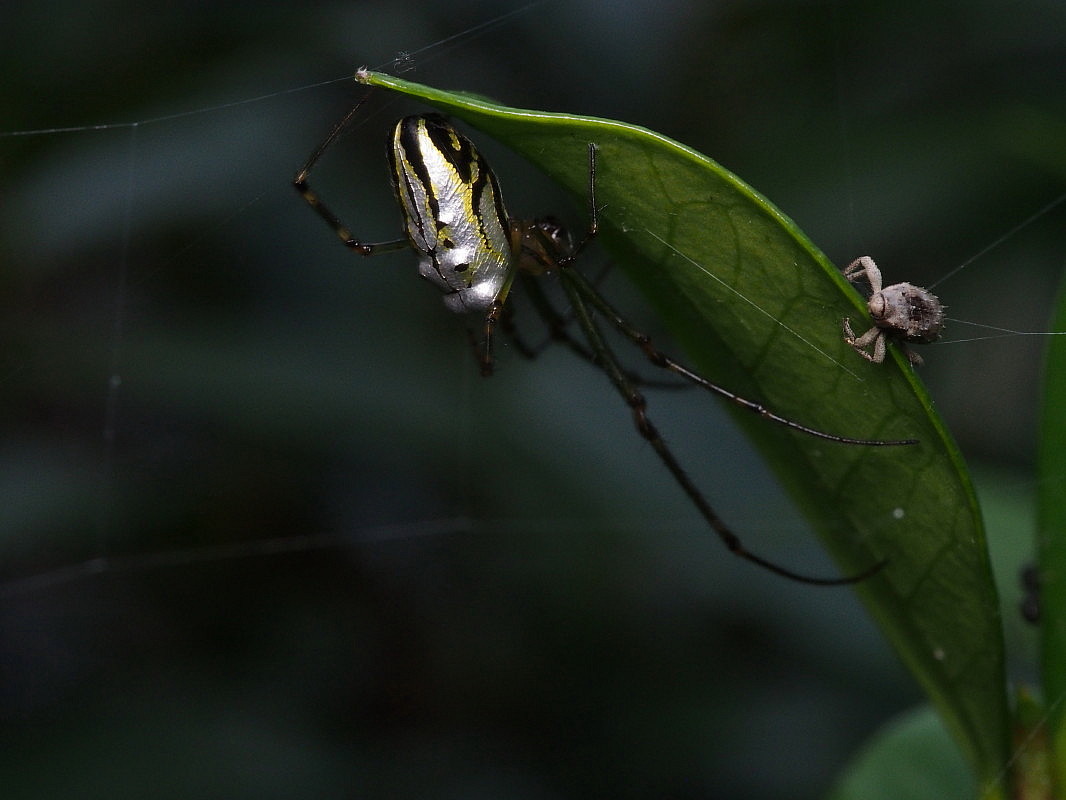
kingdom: Animalia
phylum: Arthropoda
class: Arachnida
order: Araneae
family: Tetragnathidae
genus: Leucauge
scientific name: Leucauge dromedaria
